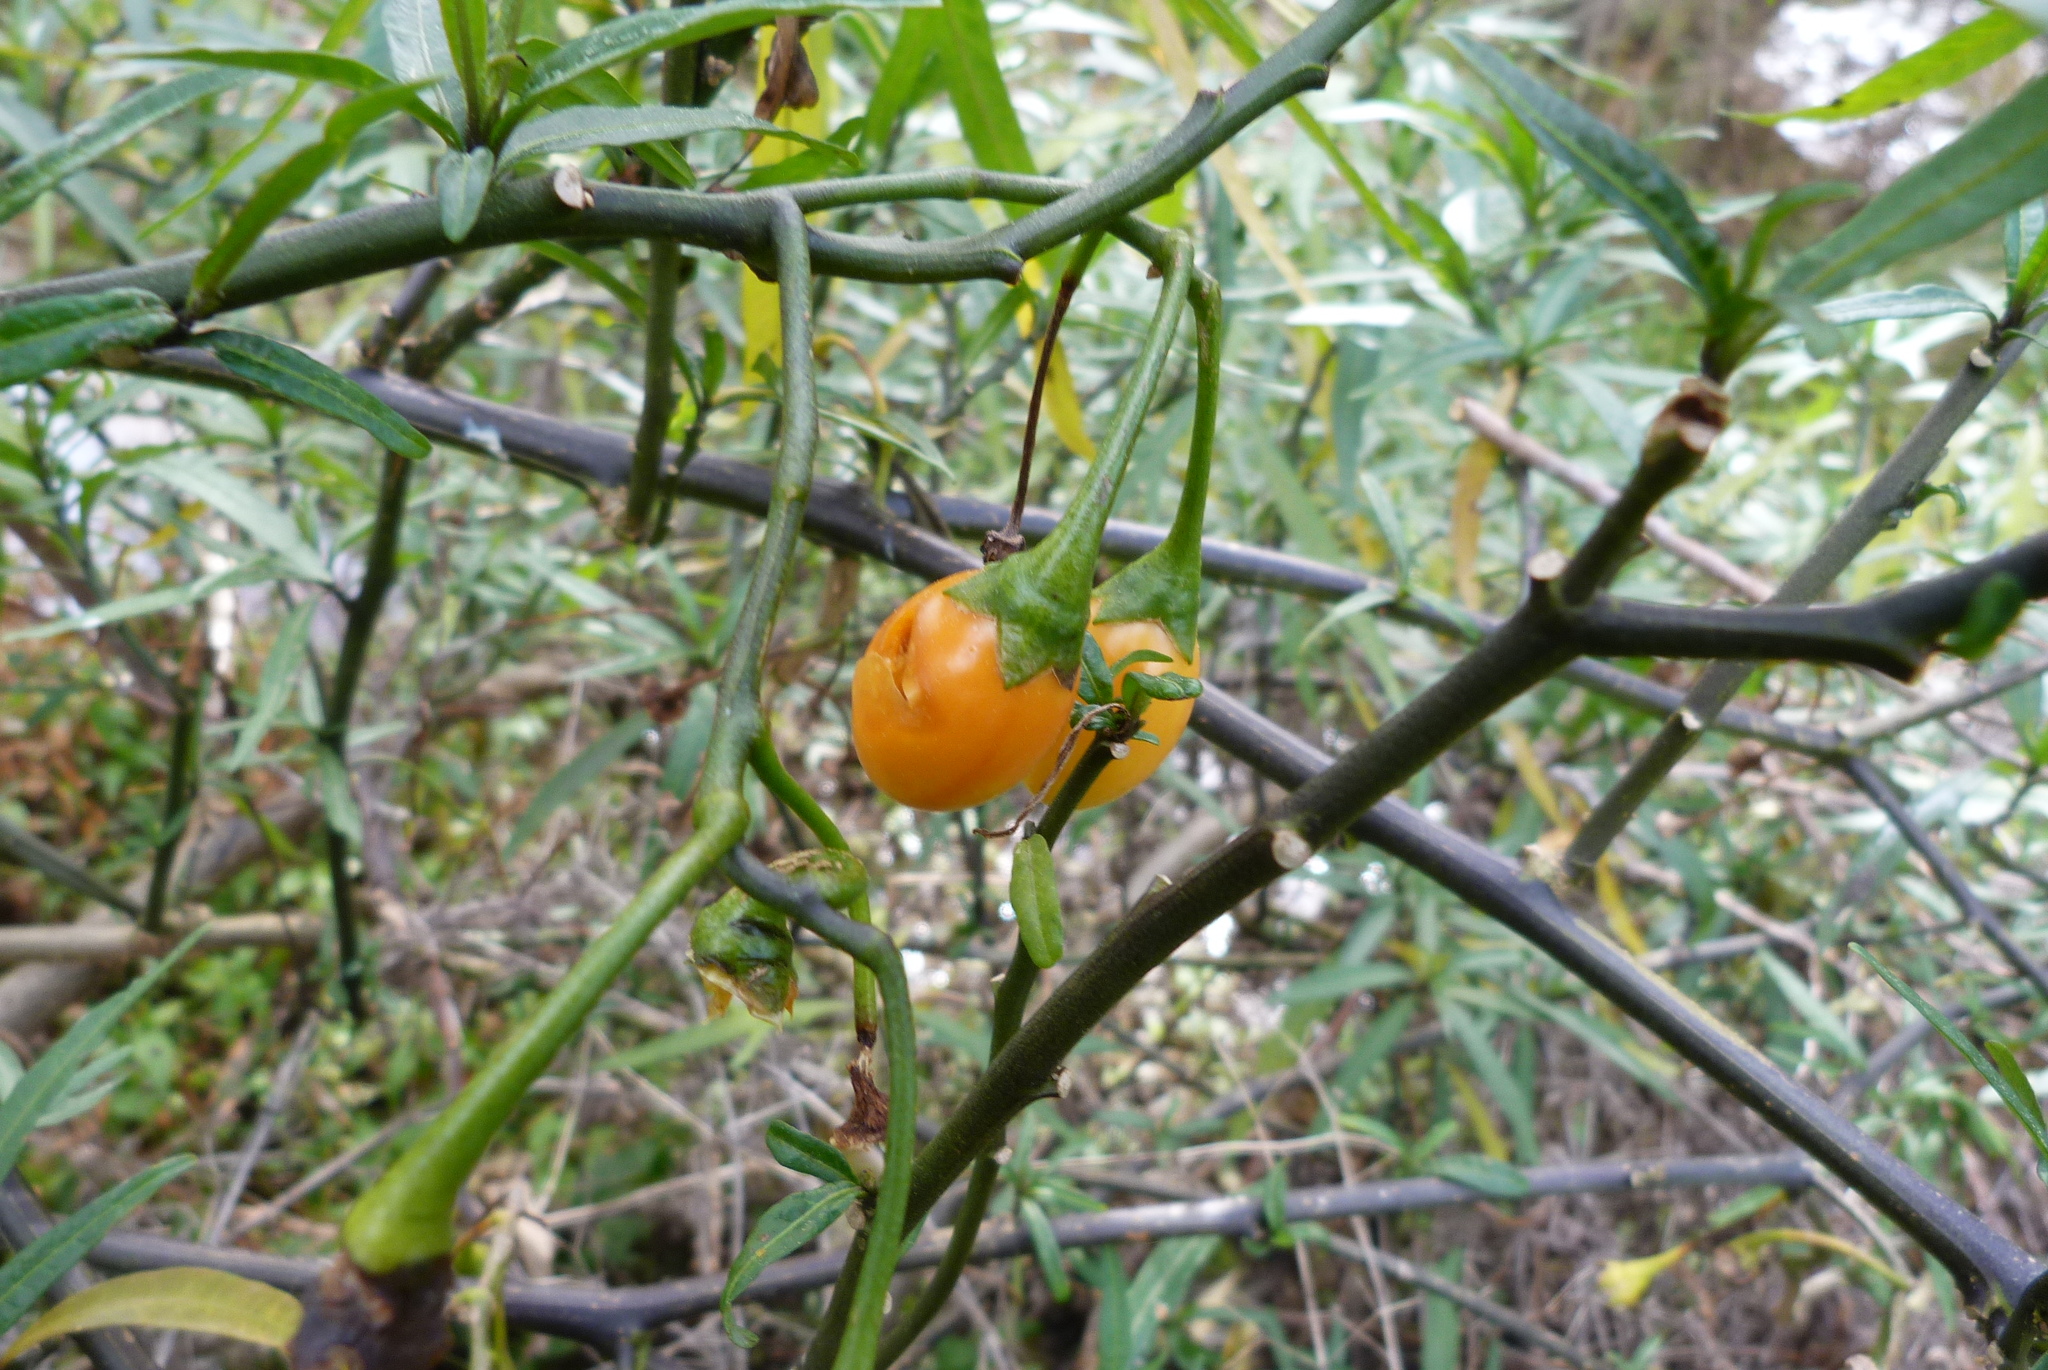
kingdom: Plantae
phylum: Tracheophyta
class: Magnoliopsida
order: Solanales
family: Solanaceae
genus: Solanum
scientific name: Solanum laciniatum
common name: Kangaroo-apple
